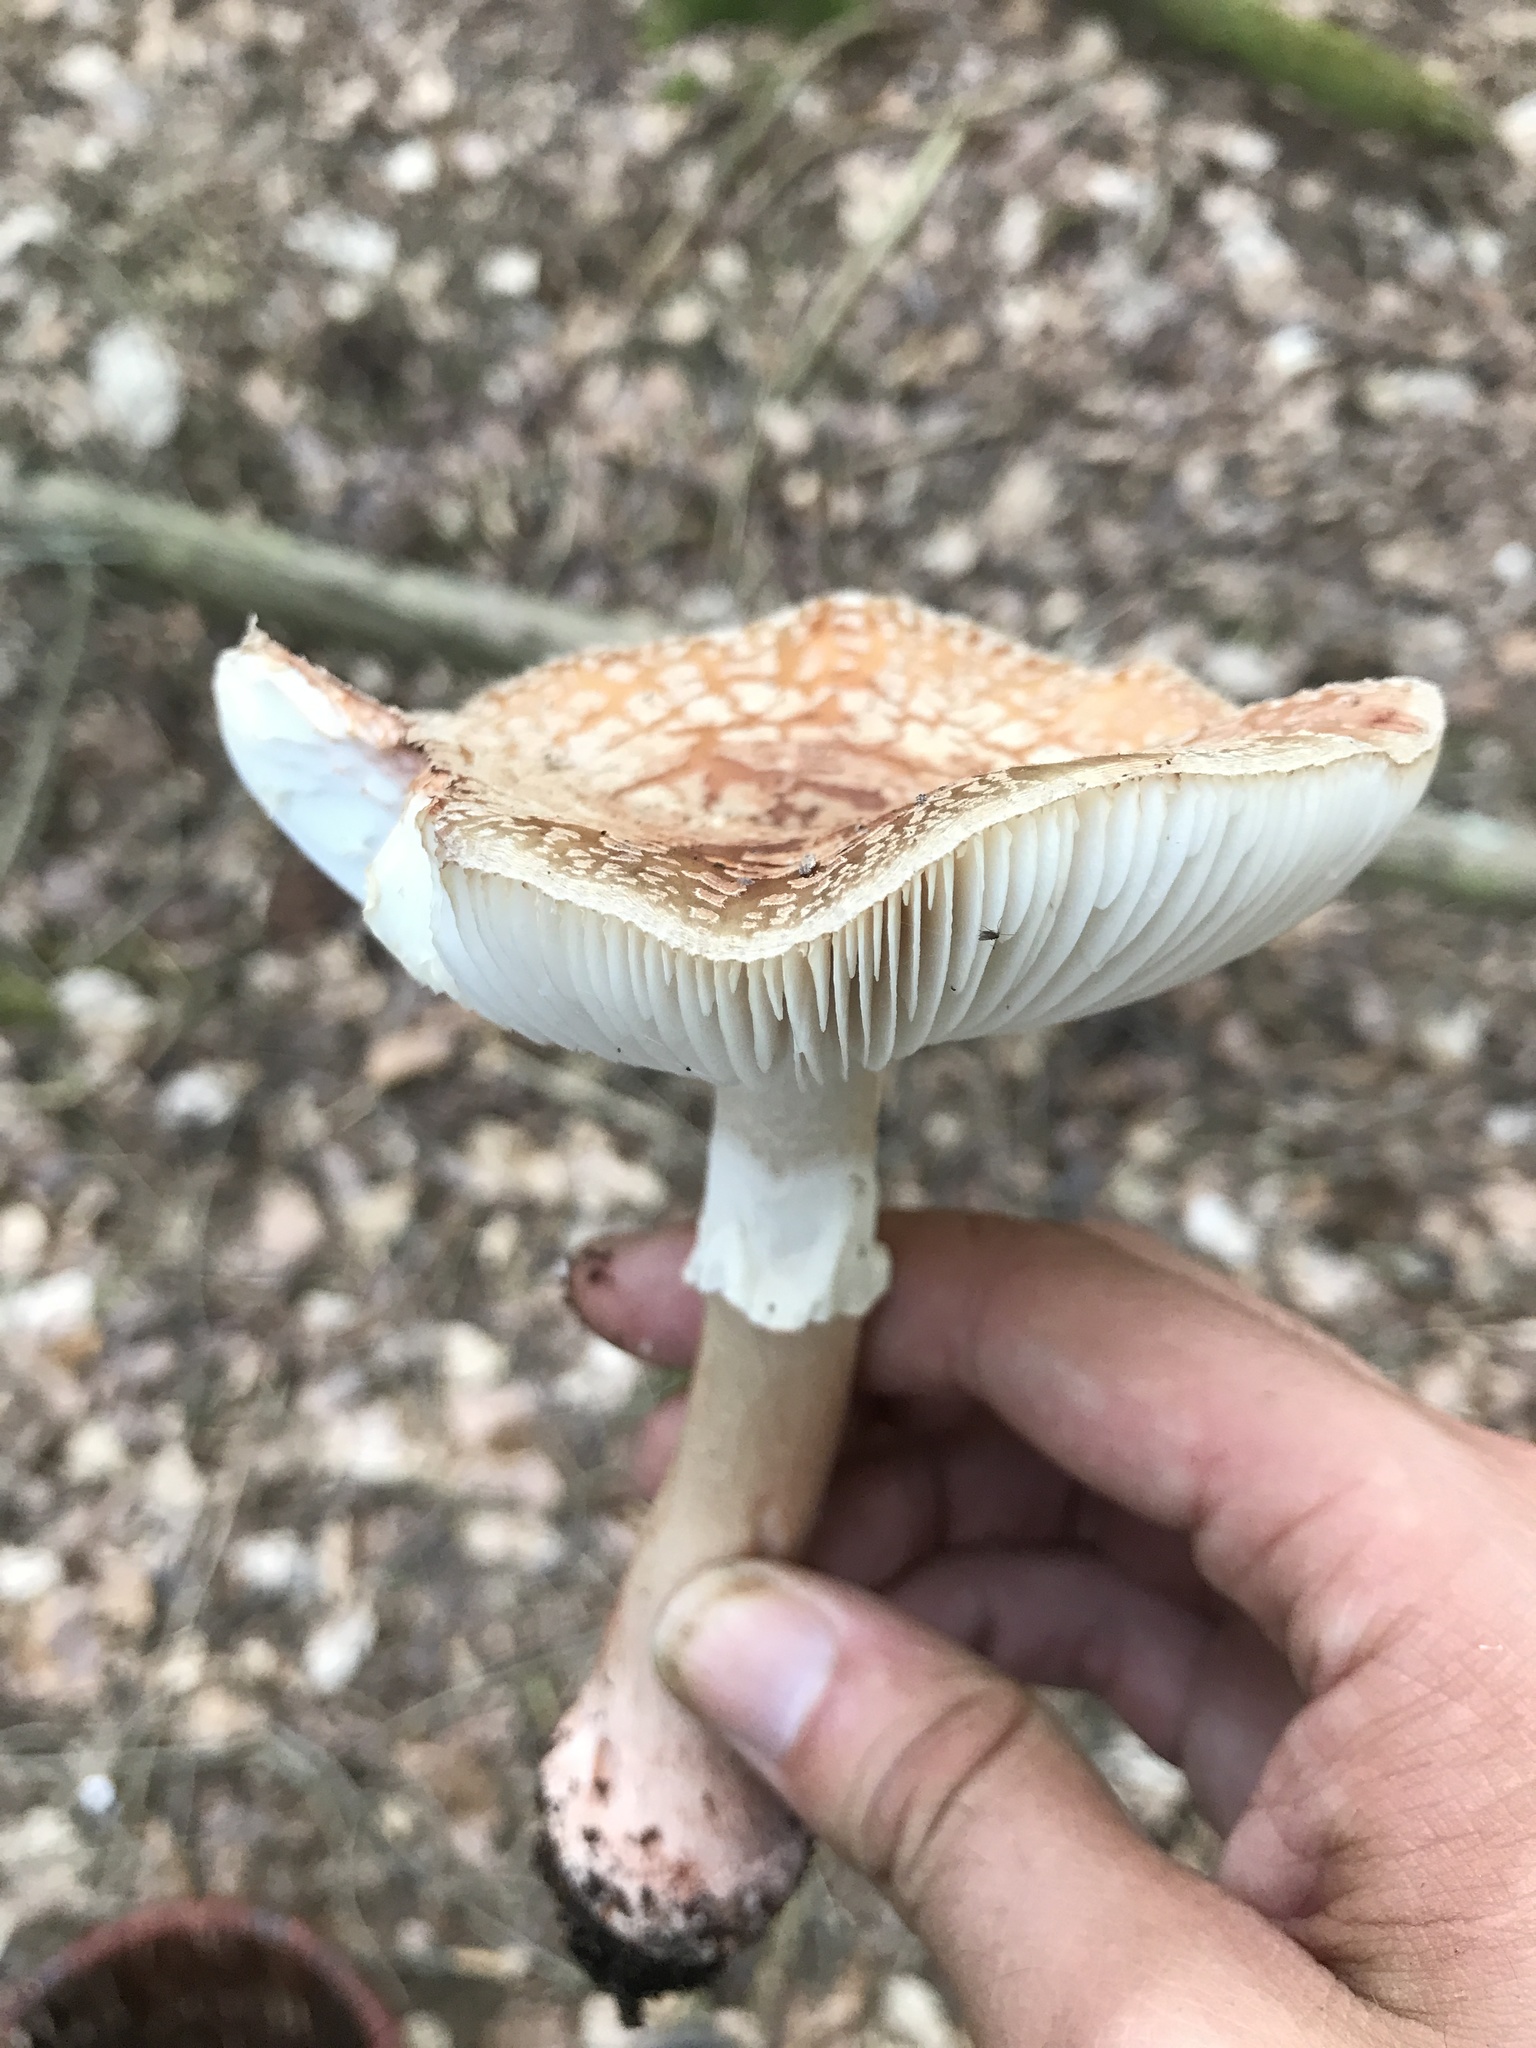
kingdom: Fungi
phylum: Basidiomycota
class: Agaricomycetes
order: Agaricales
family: Amanitaceae
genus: Amanita
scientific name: Amanita rubescens
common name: Blusher
